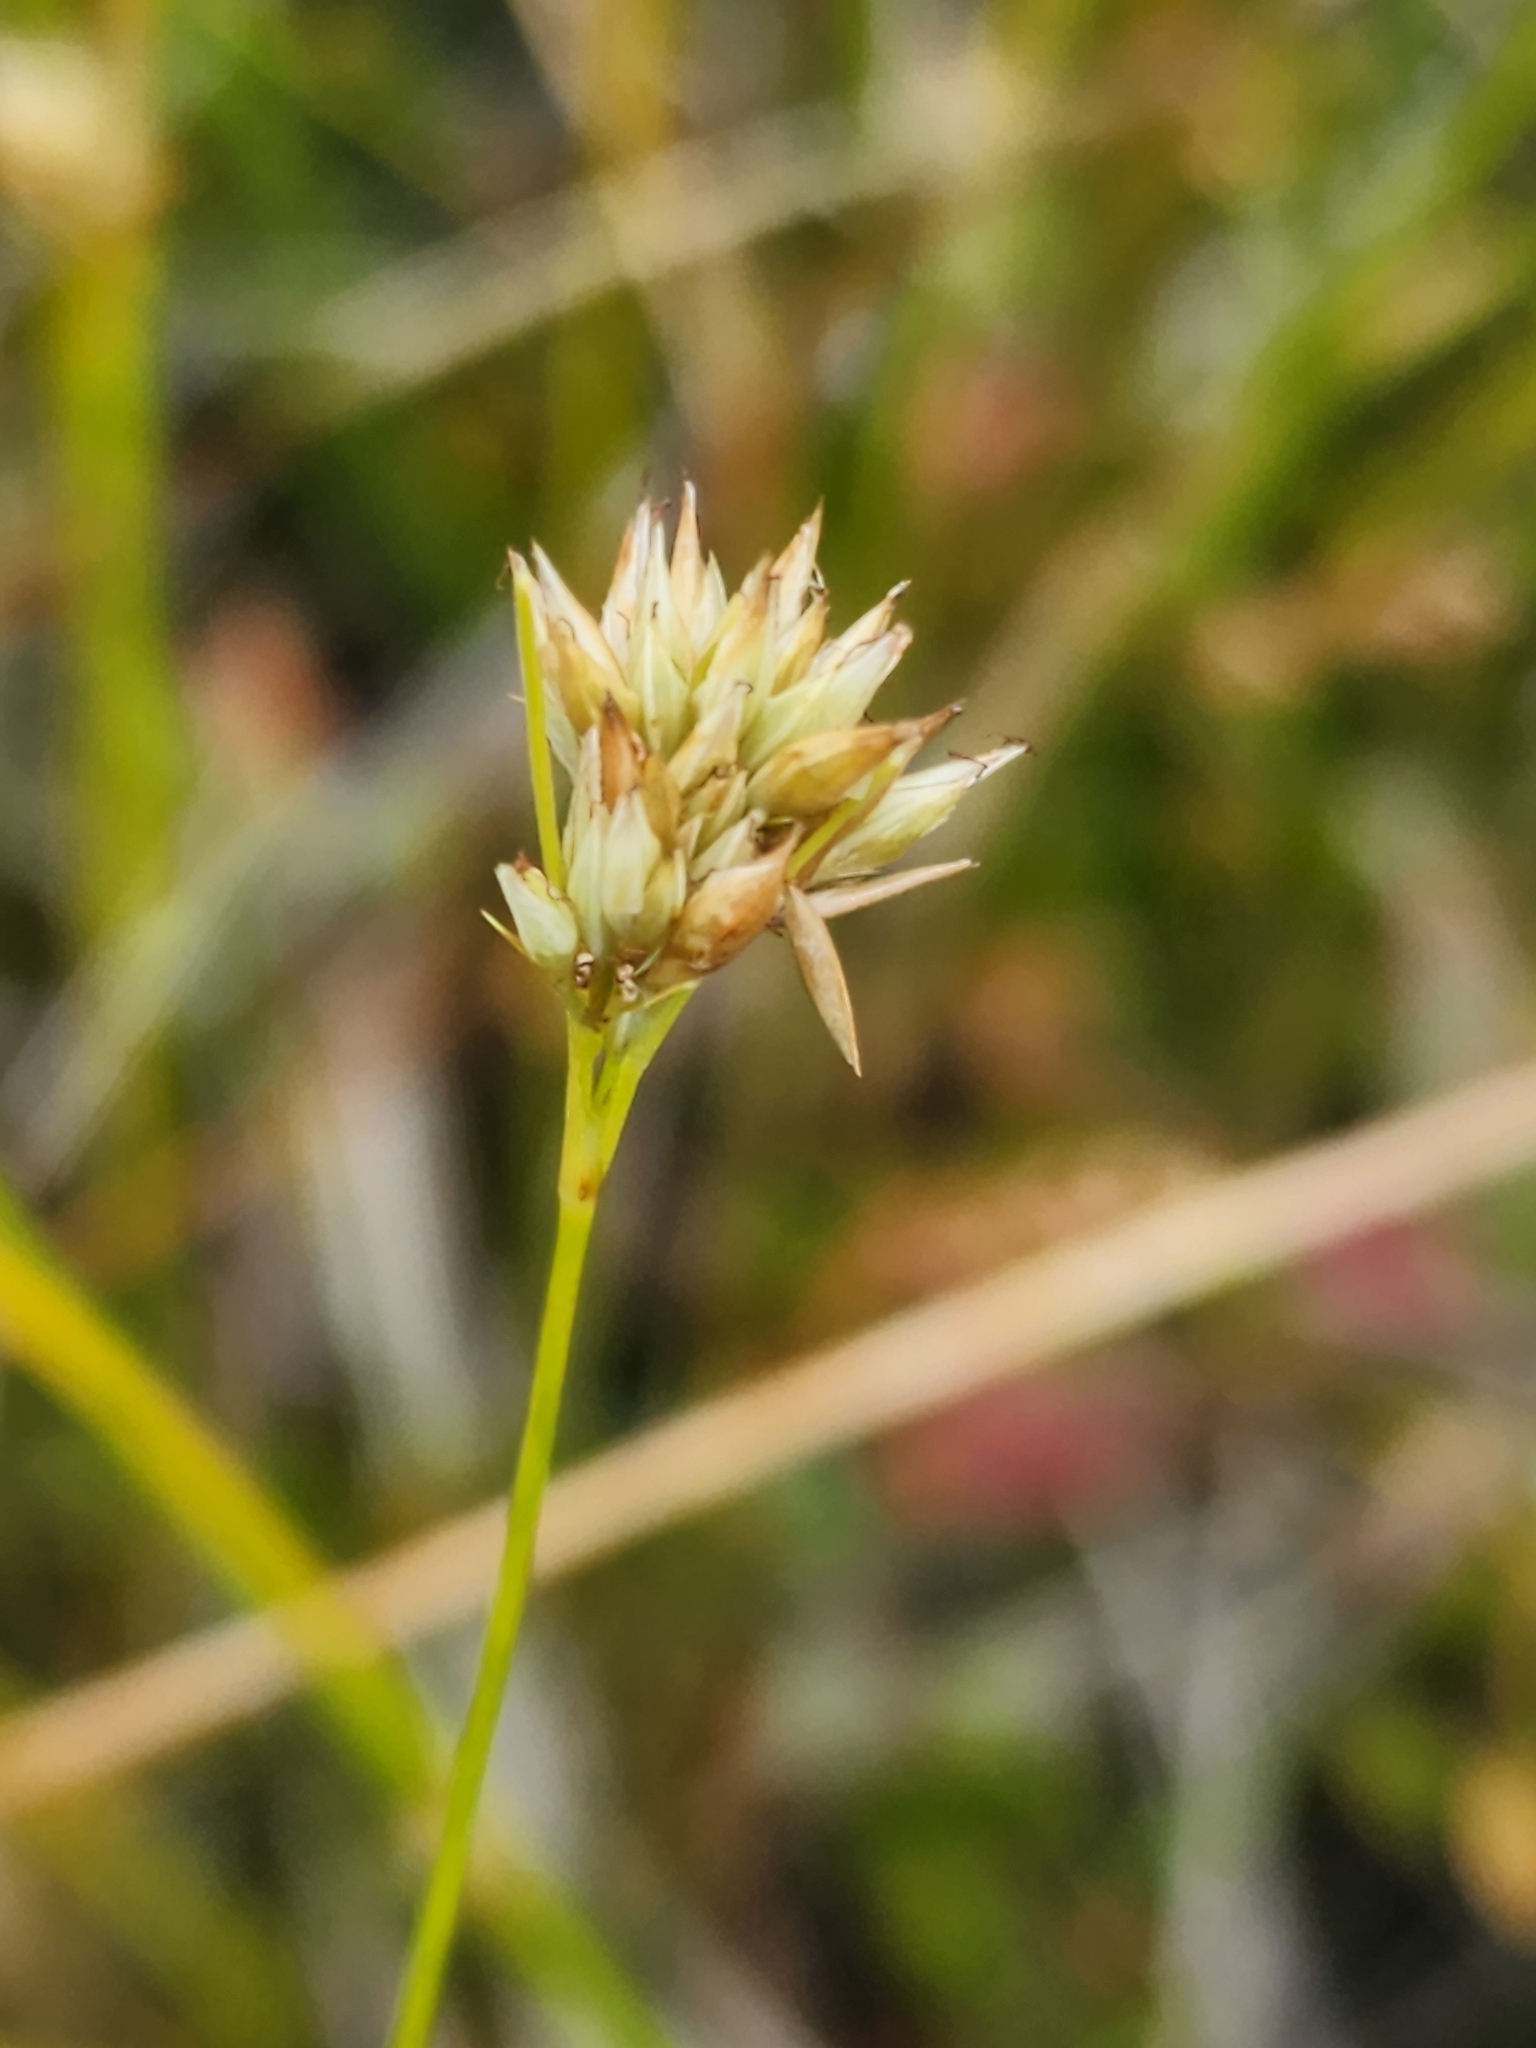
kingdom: Plantae
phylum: Tracheophyta
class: Liliopsida
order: Poales
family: Cyperaceae
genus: Rhynchospora
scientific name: Rhynchospora alba
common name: White beak-sedge
